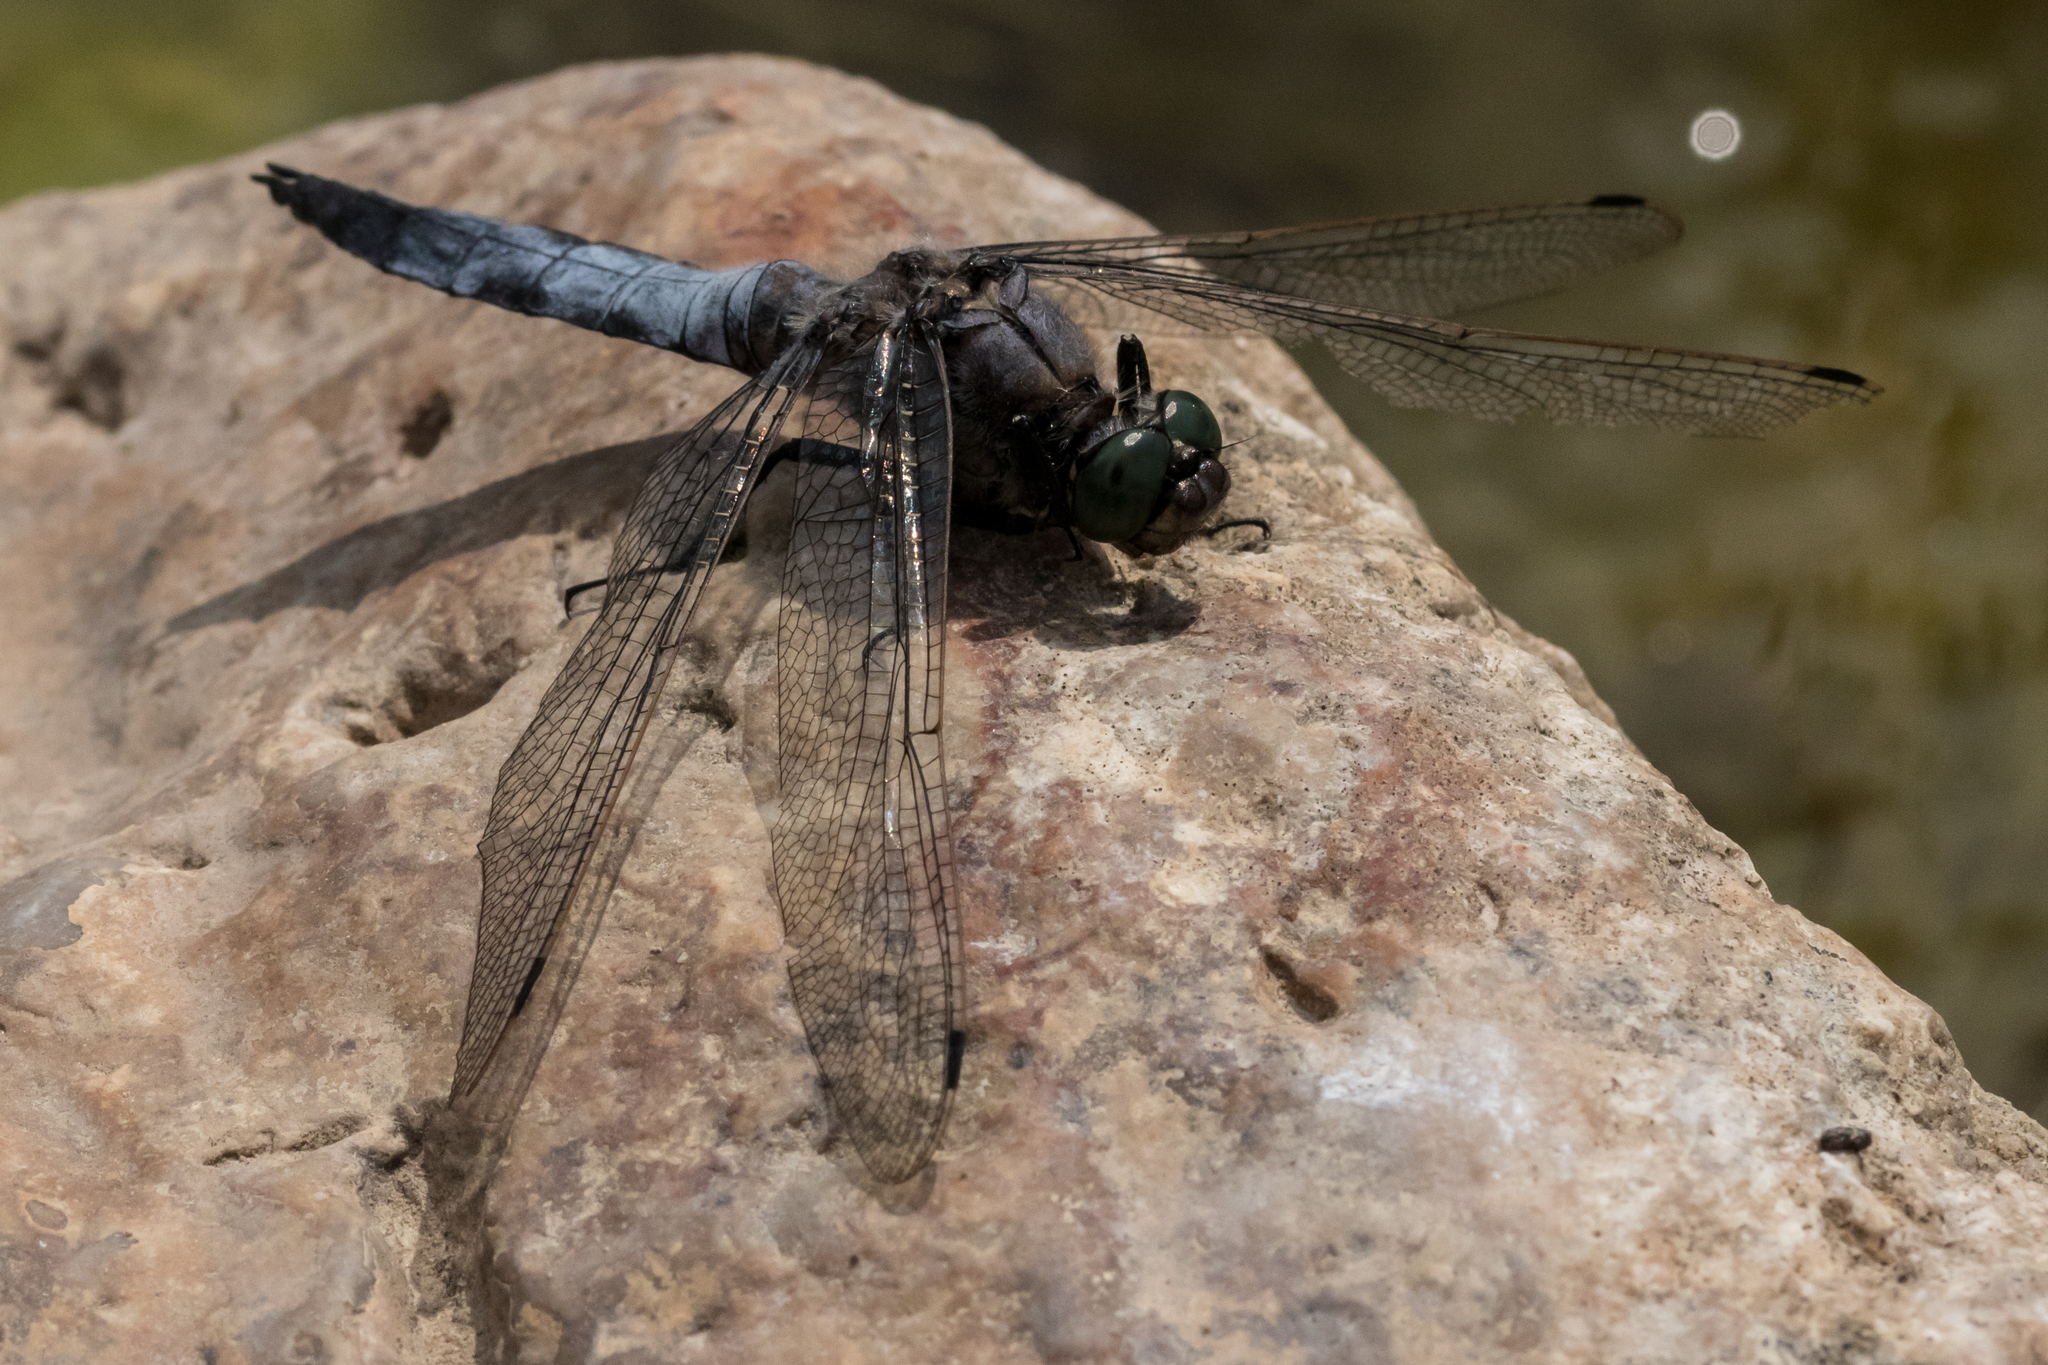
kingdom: Animalia
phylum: Arthropoda
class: Insecta
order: Odonata
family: Libellulidae
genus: Orthetrum
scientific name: Orthetrum cancellatum
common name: Black-tailed skimmer
